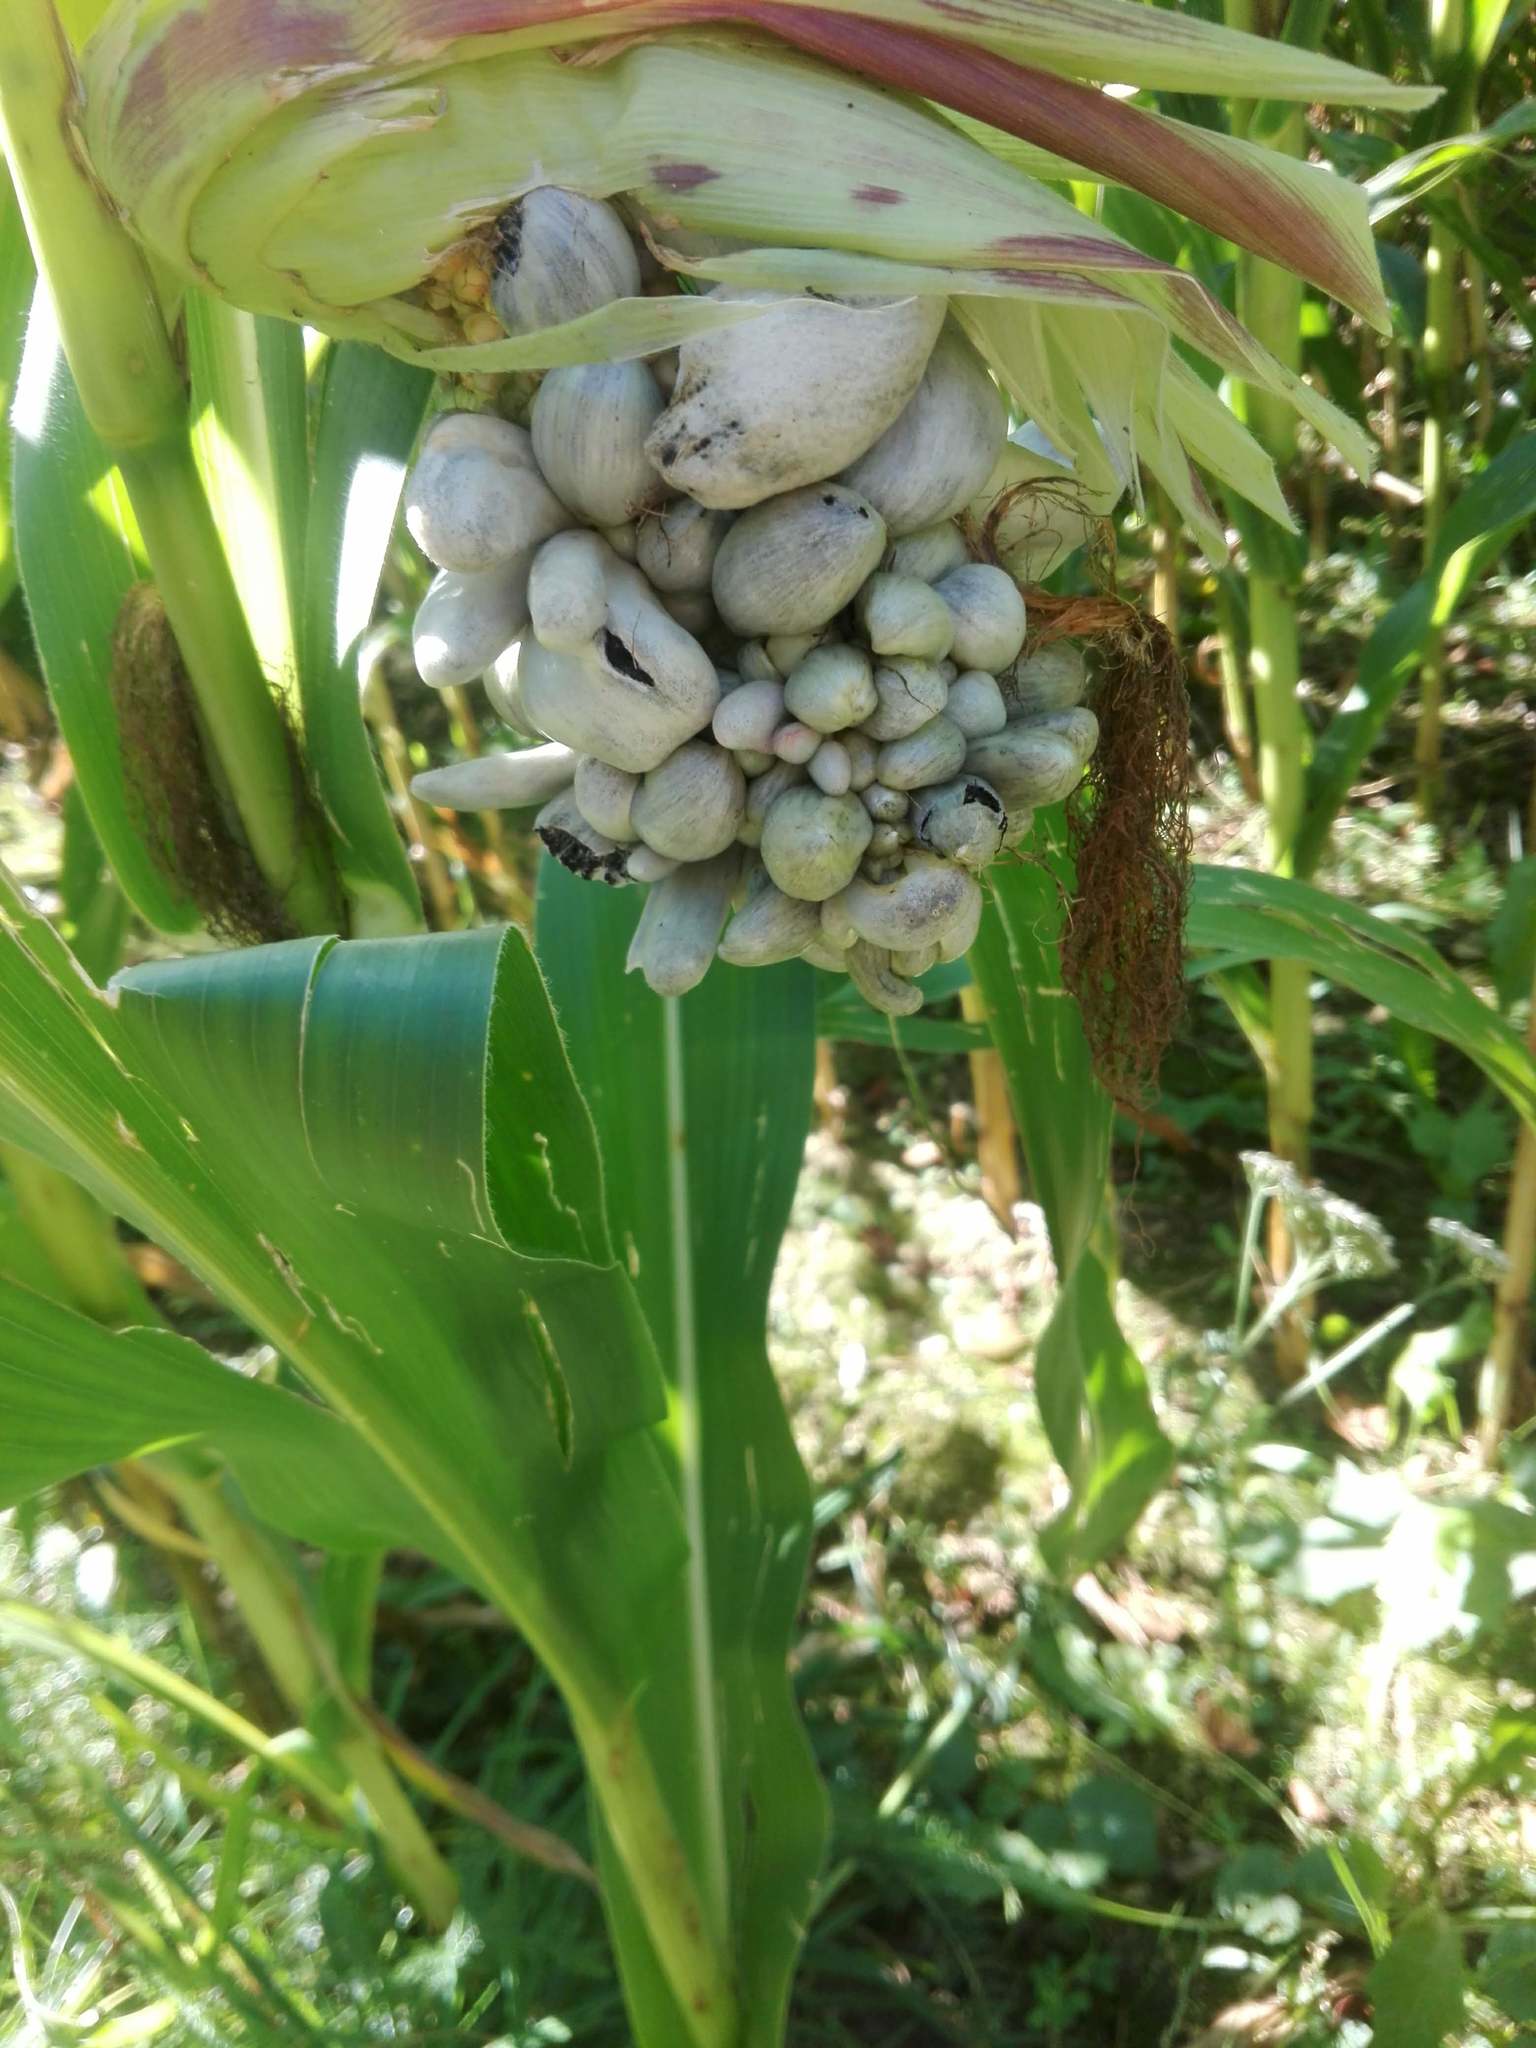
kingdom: Fungi
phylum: Basidiomycota
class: Ustilaginomycetes
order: Ustilaginales
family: Ustilaginaceae
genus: Mycosarcoma
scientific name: Mycosarcoma maydis
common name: Corn smut
